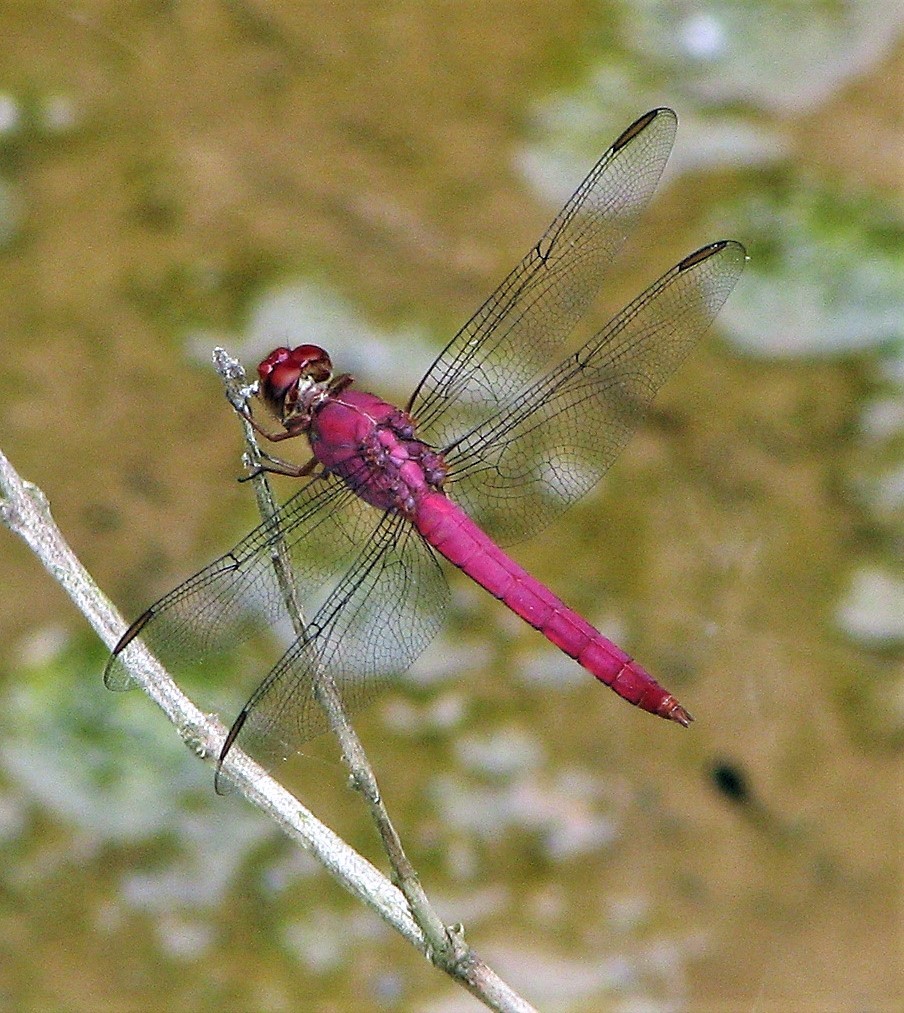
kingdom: Animalia
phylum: Arthropoda
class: Insecta
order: Odonata
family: Libellulidae
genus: Orthemis
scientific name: Orthemis discolor
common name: Carmine skimmer
